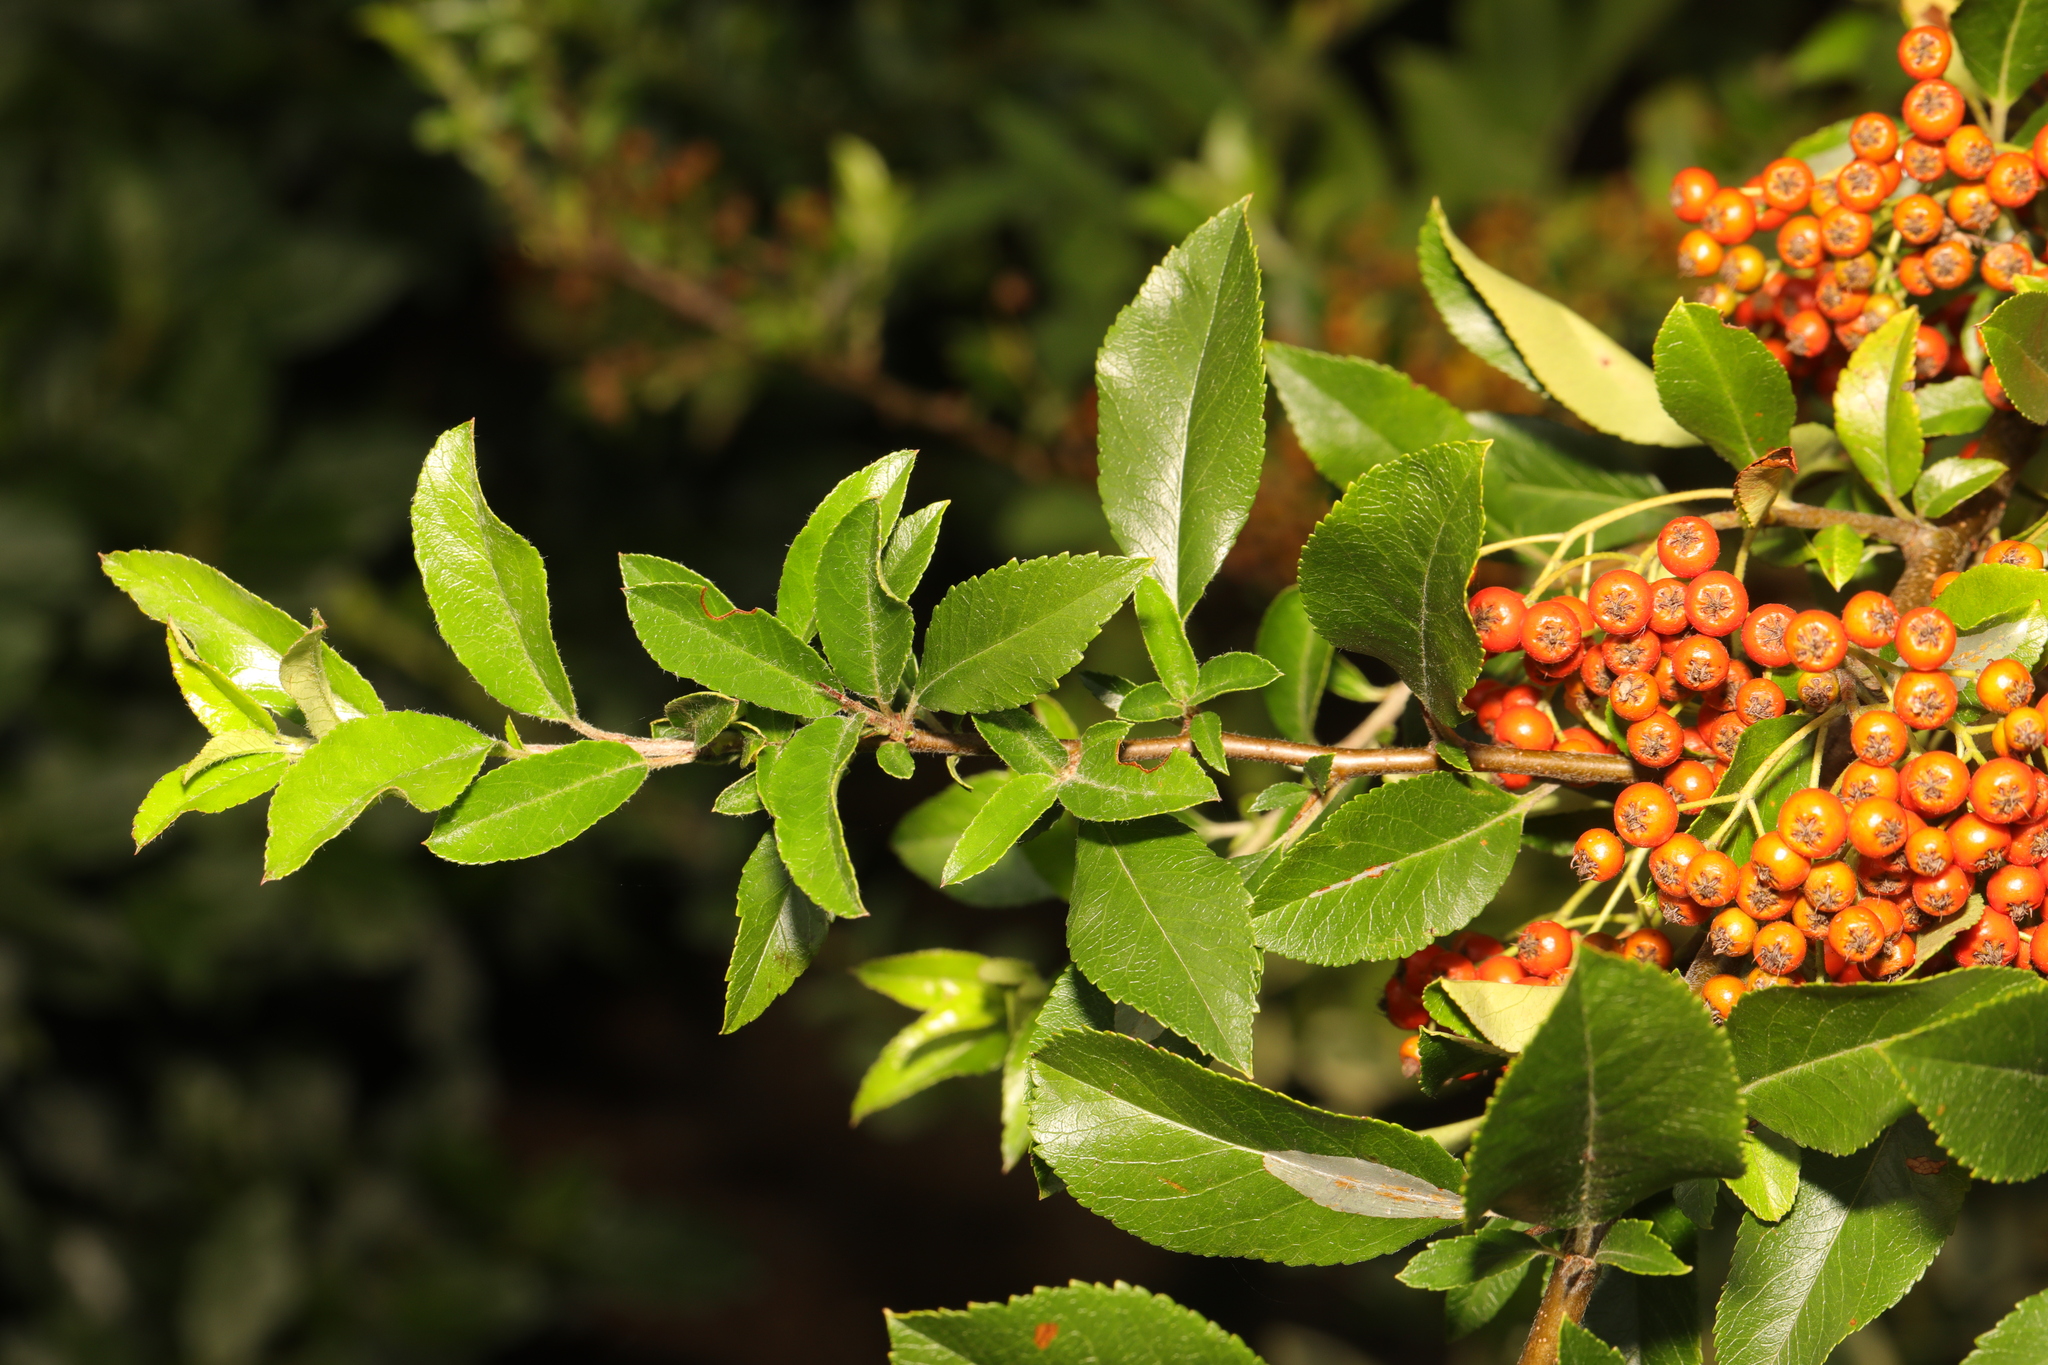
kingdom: Plantae
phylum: Tracheophyta
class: Magnoliopsida
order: Rosales
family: Rosaceae
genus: Pyracantha
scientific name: Pyracantha coccinea
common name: Firethorn
